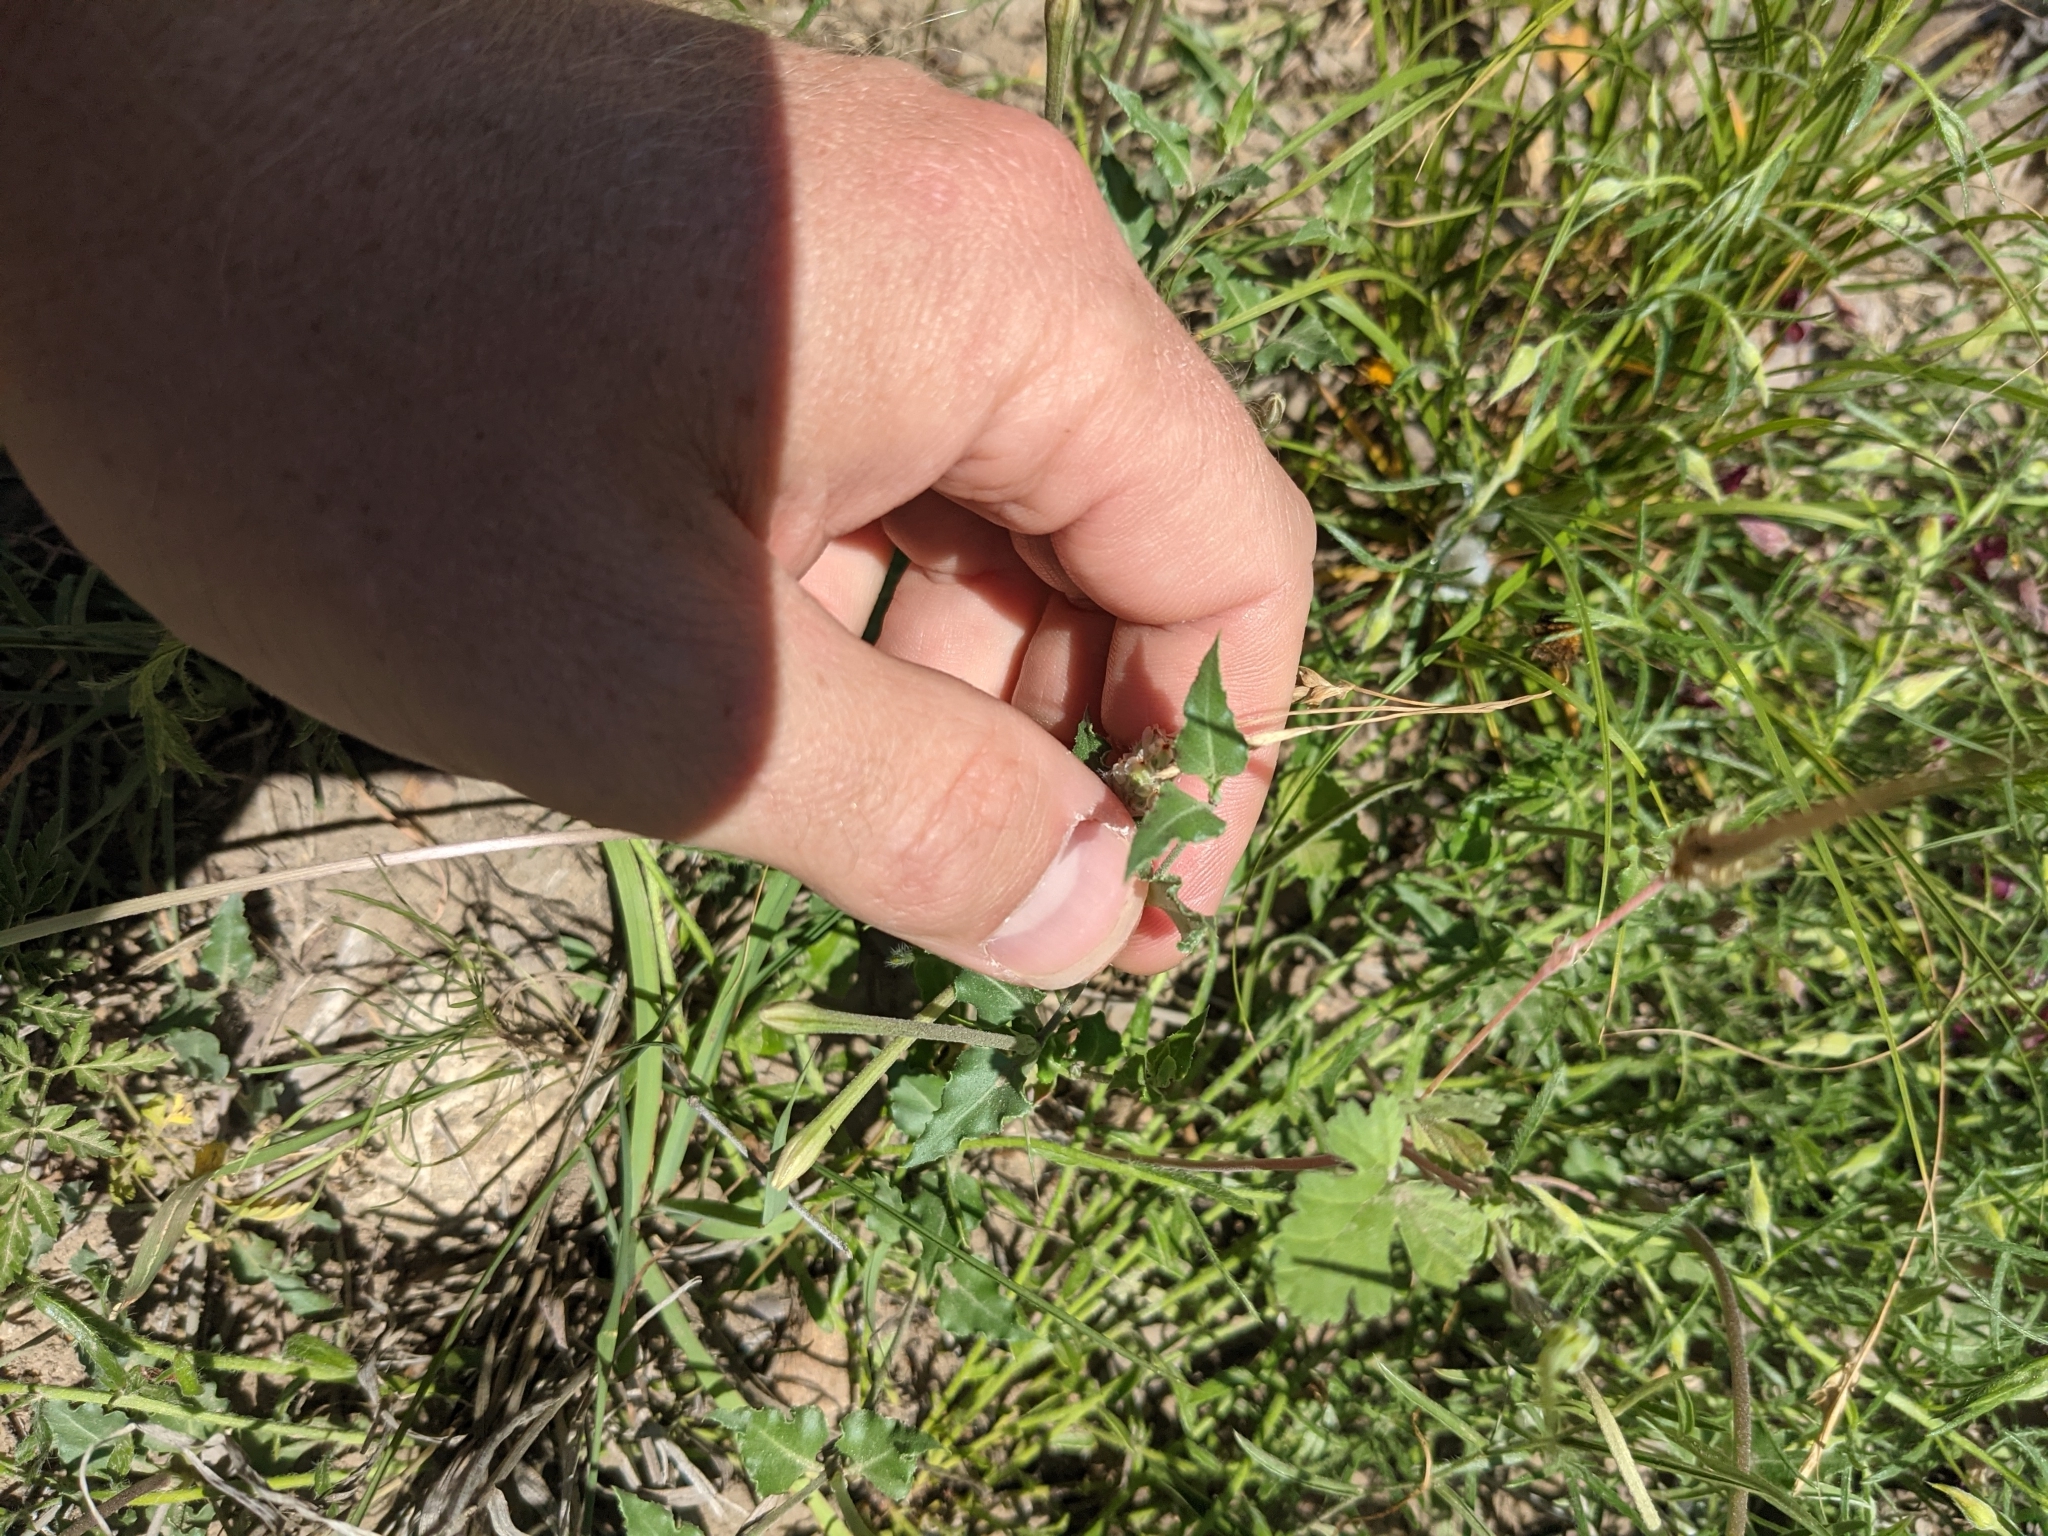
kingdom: Plantae
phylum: Tracheophyta
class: Magnoliopsida
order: Caryophyllales
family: Nyctaginaceae
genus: Acleisanthes
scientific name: Acleisanthes longiflora
